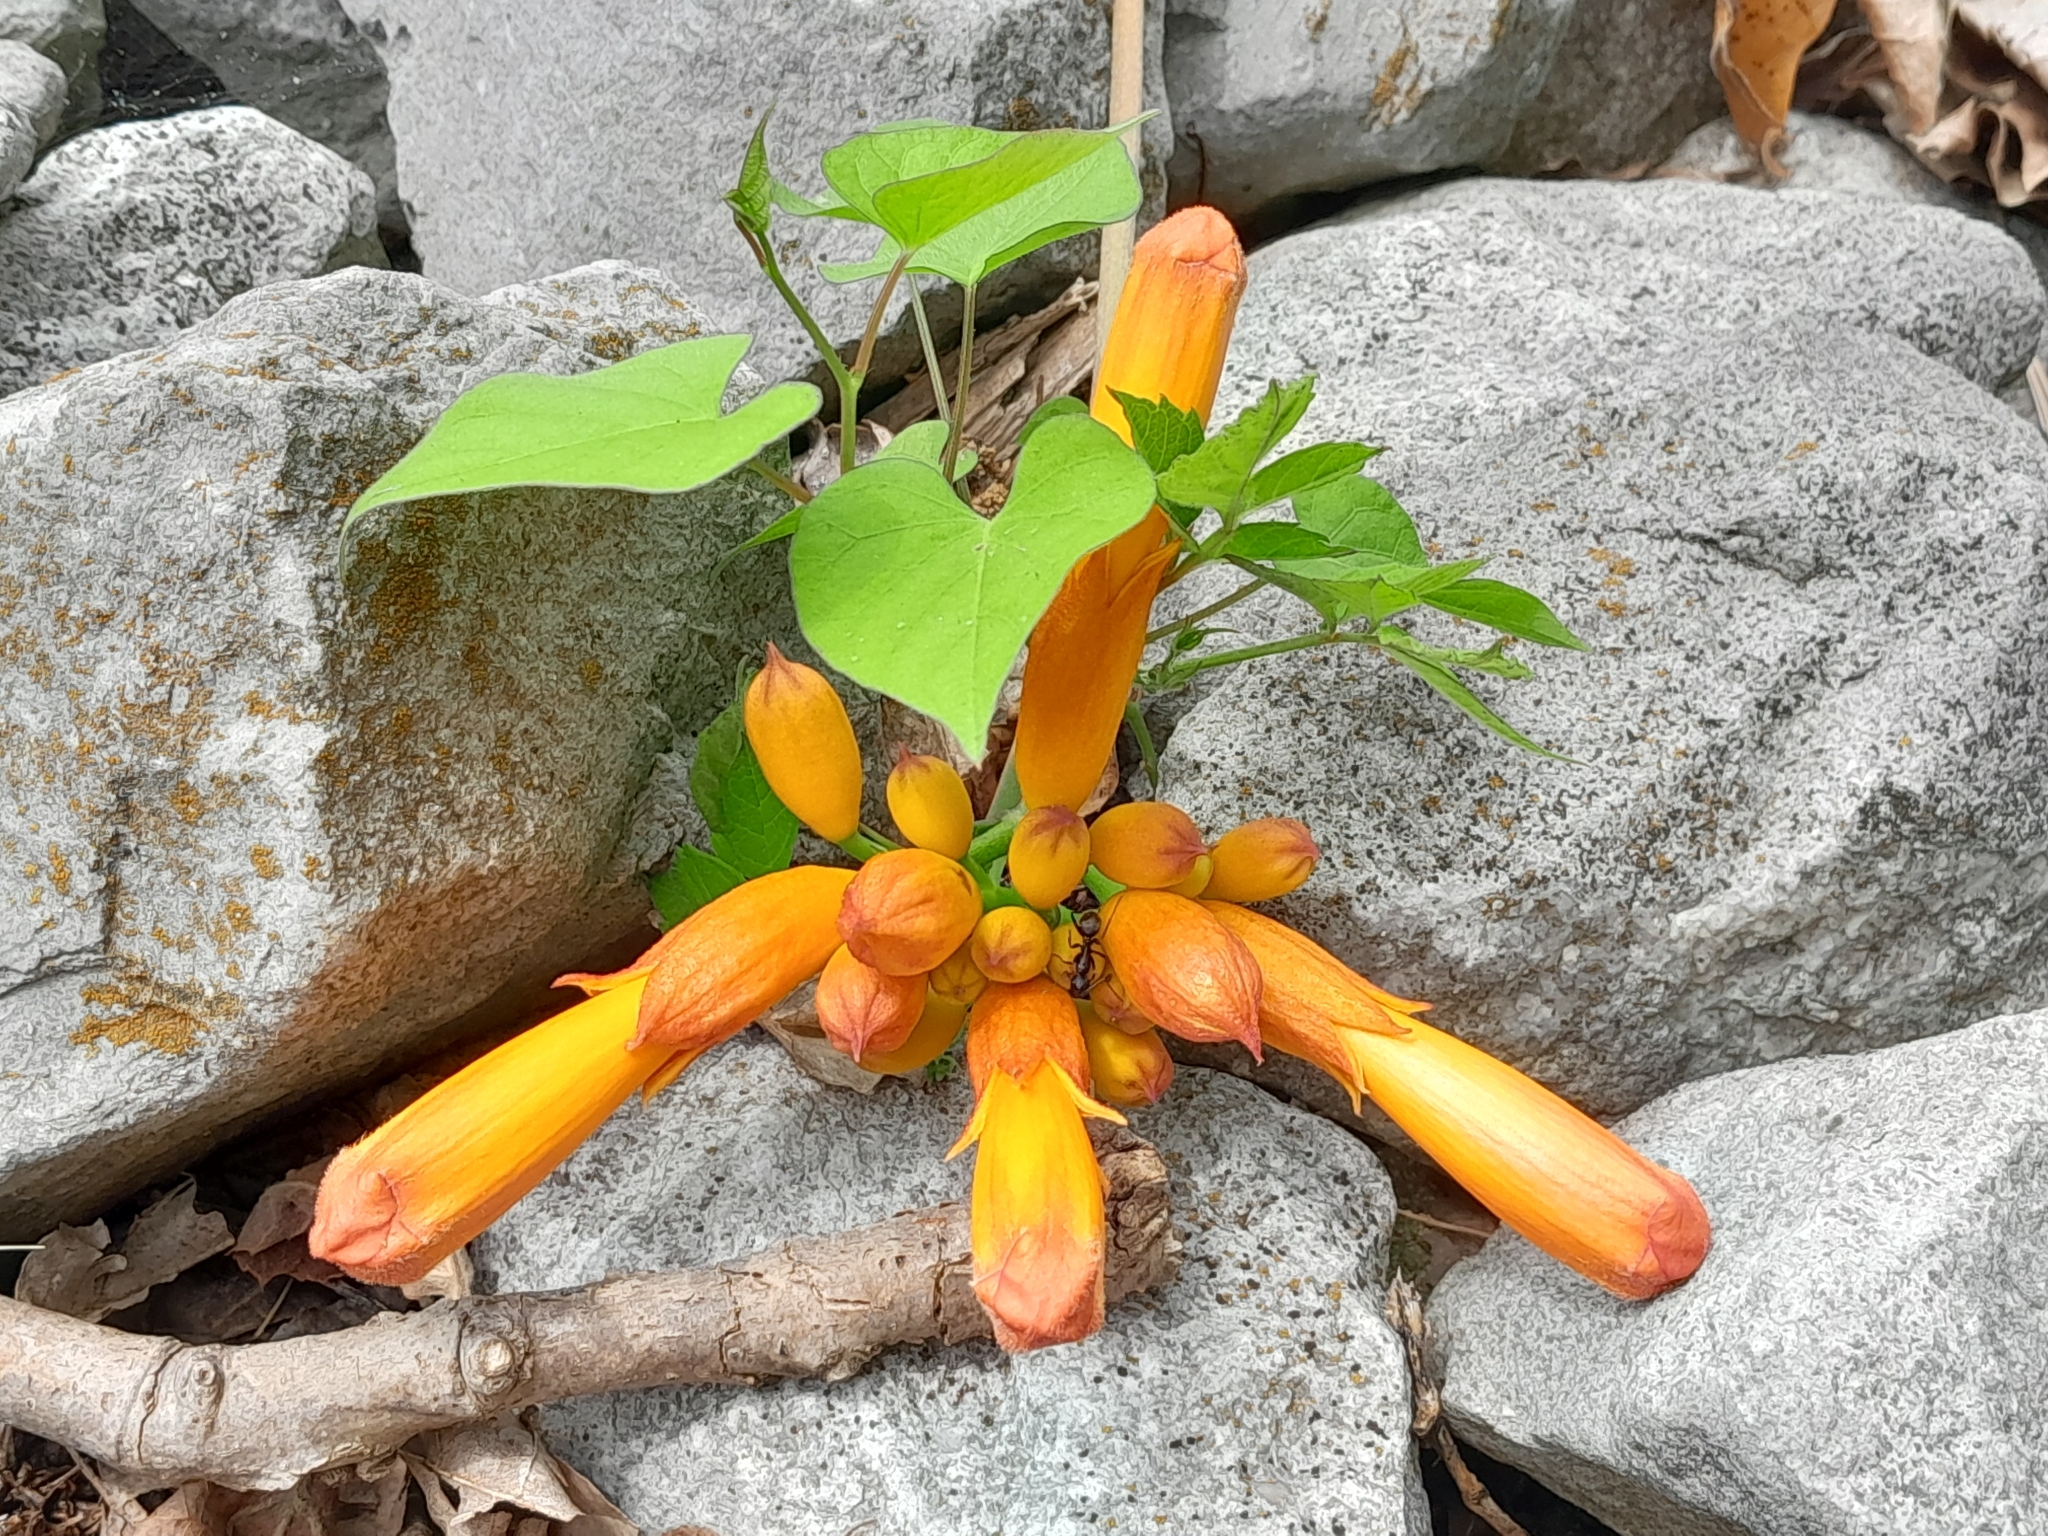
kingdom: Plantae
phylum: Tracheophyta
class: Magnoliopsida
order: Lamiales
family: Bignoniaceae
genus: Campsis
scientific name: Campsis radicans
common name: Trumpet-creeper
